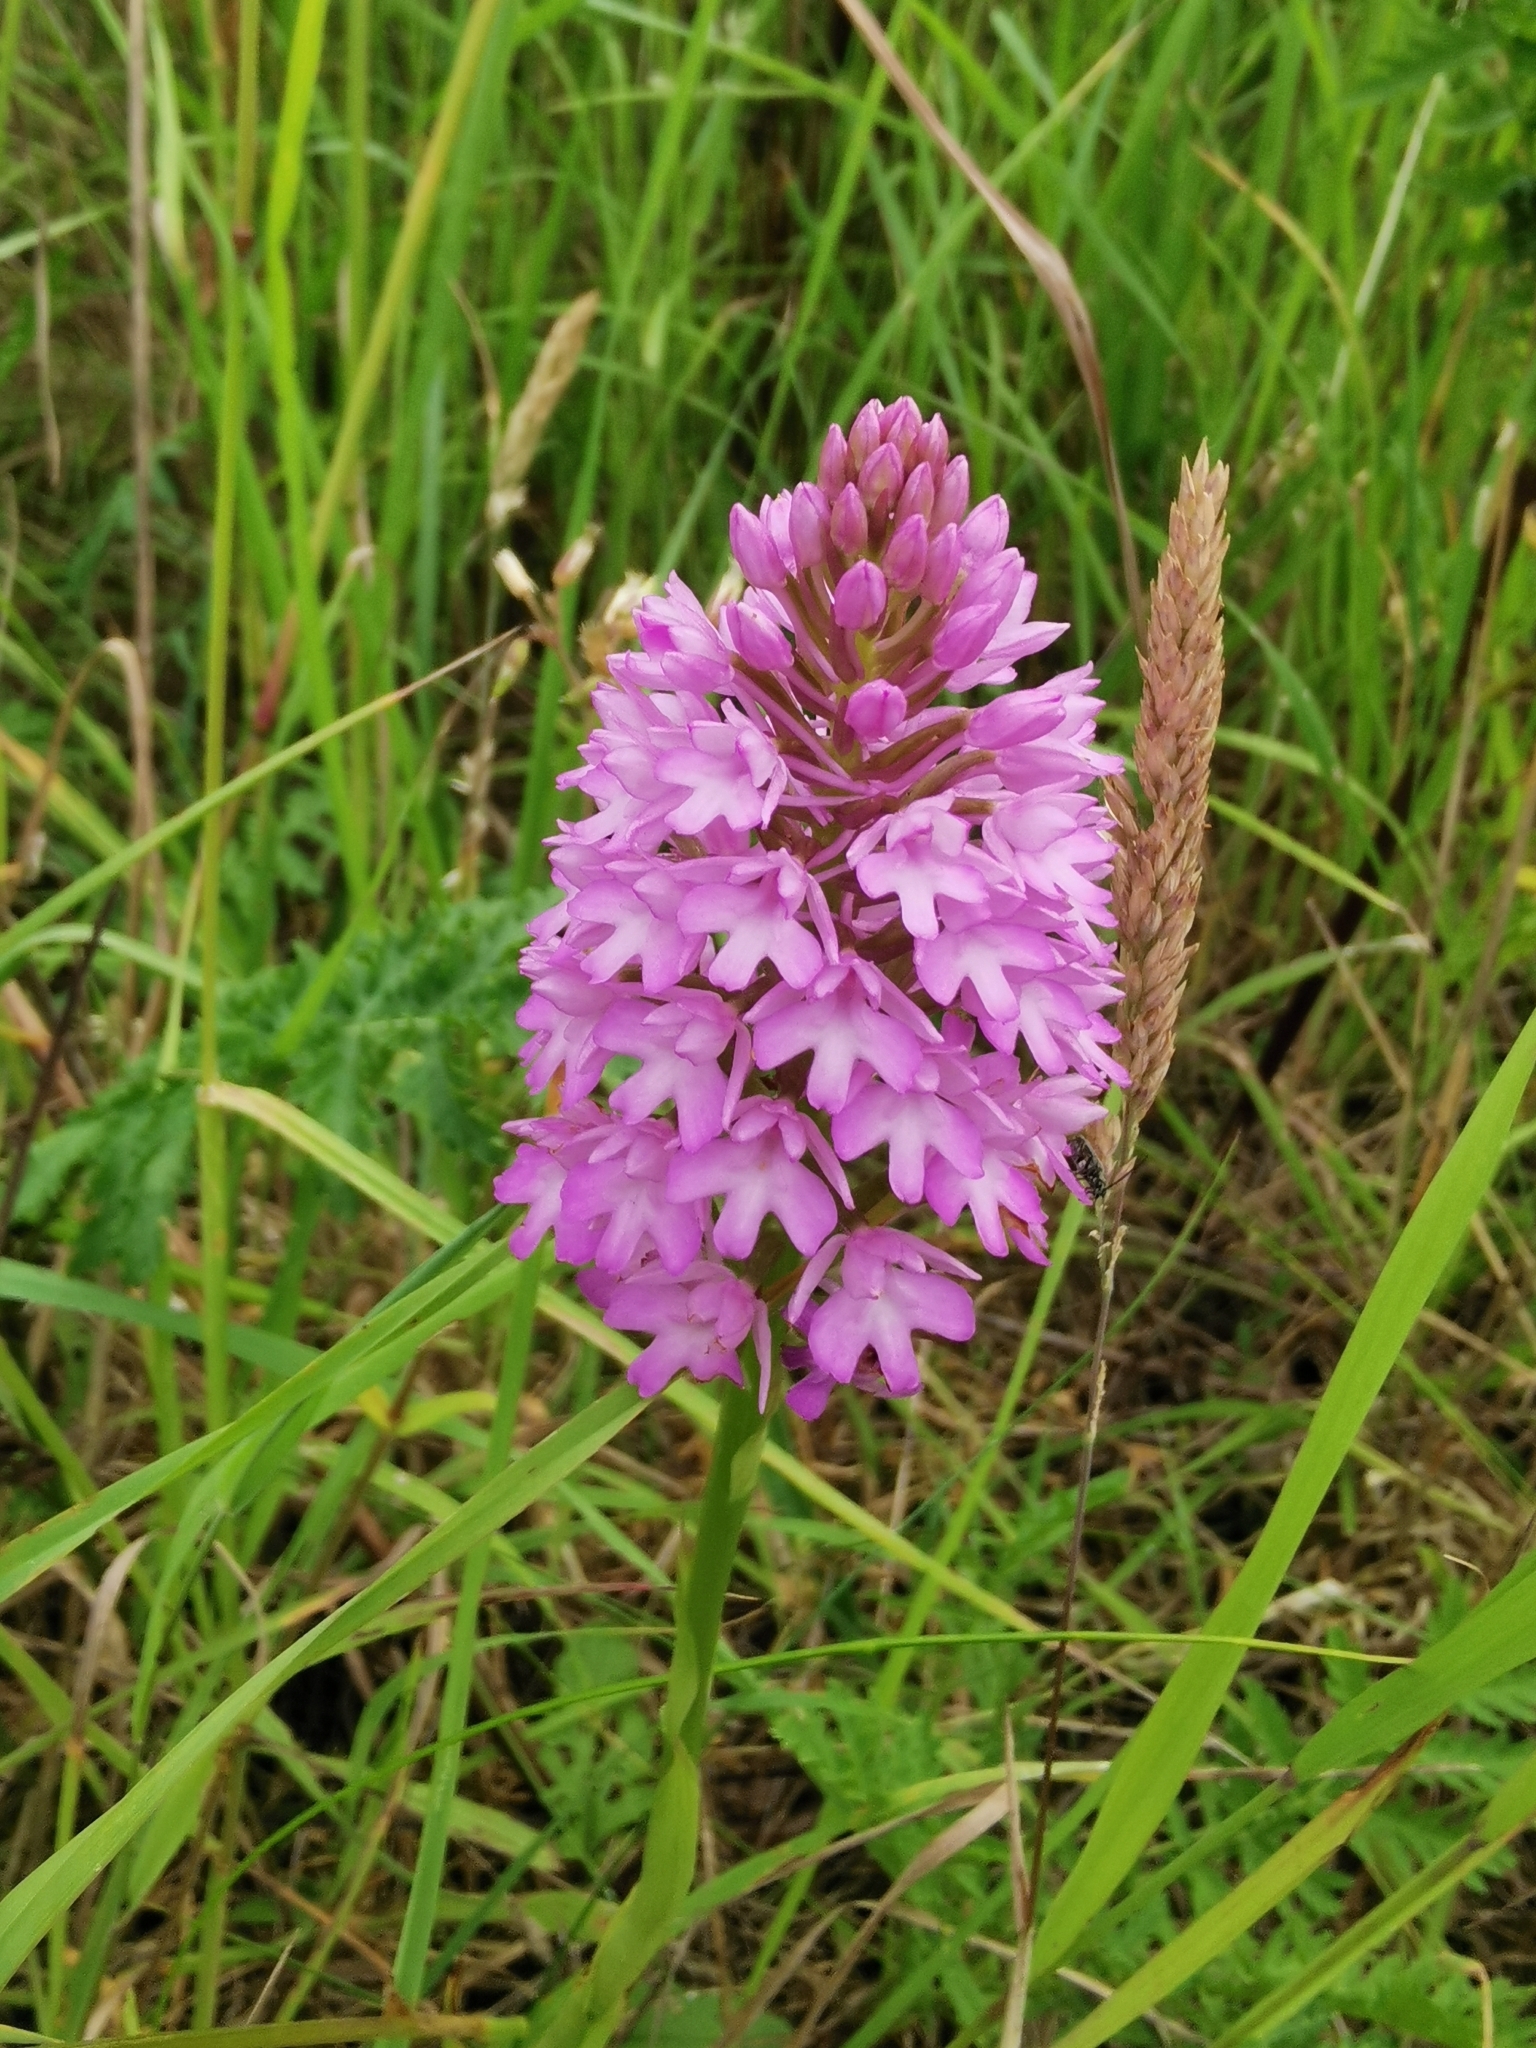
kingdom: Plantae
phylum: Tracheophyta
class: Liliopsida
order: Asparagales
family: Orchidaceae
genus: Anacamptis
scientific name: Anacamptis pyramidalis
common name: Pyramidal orchid
